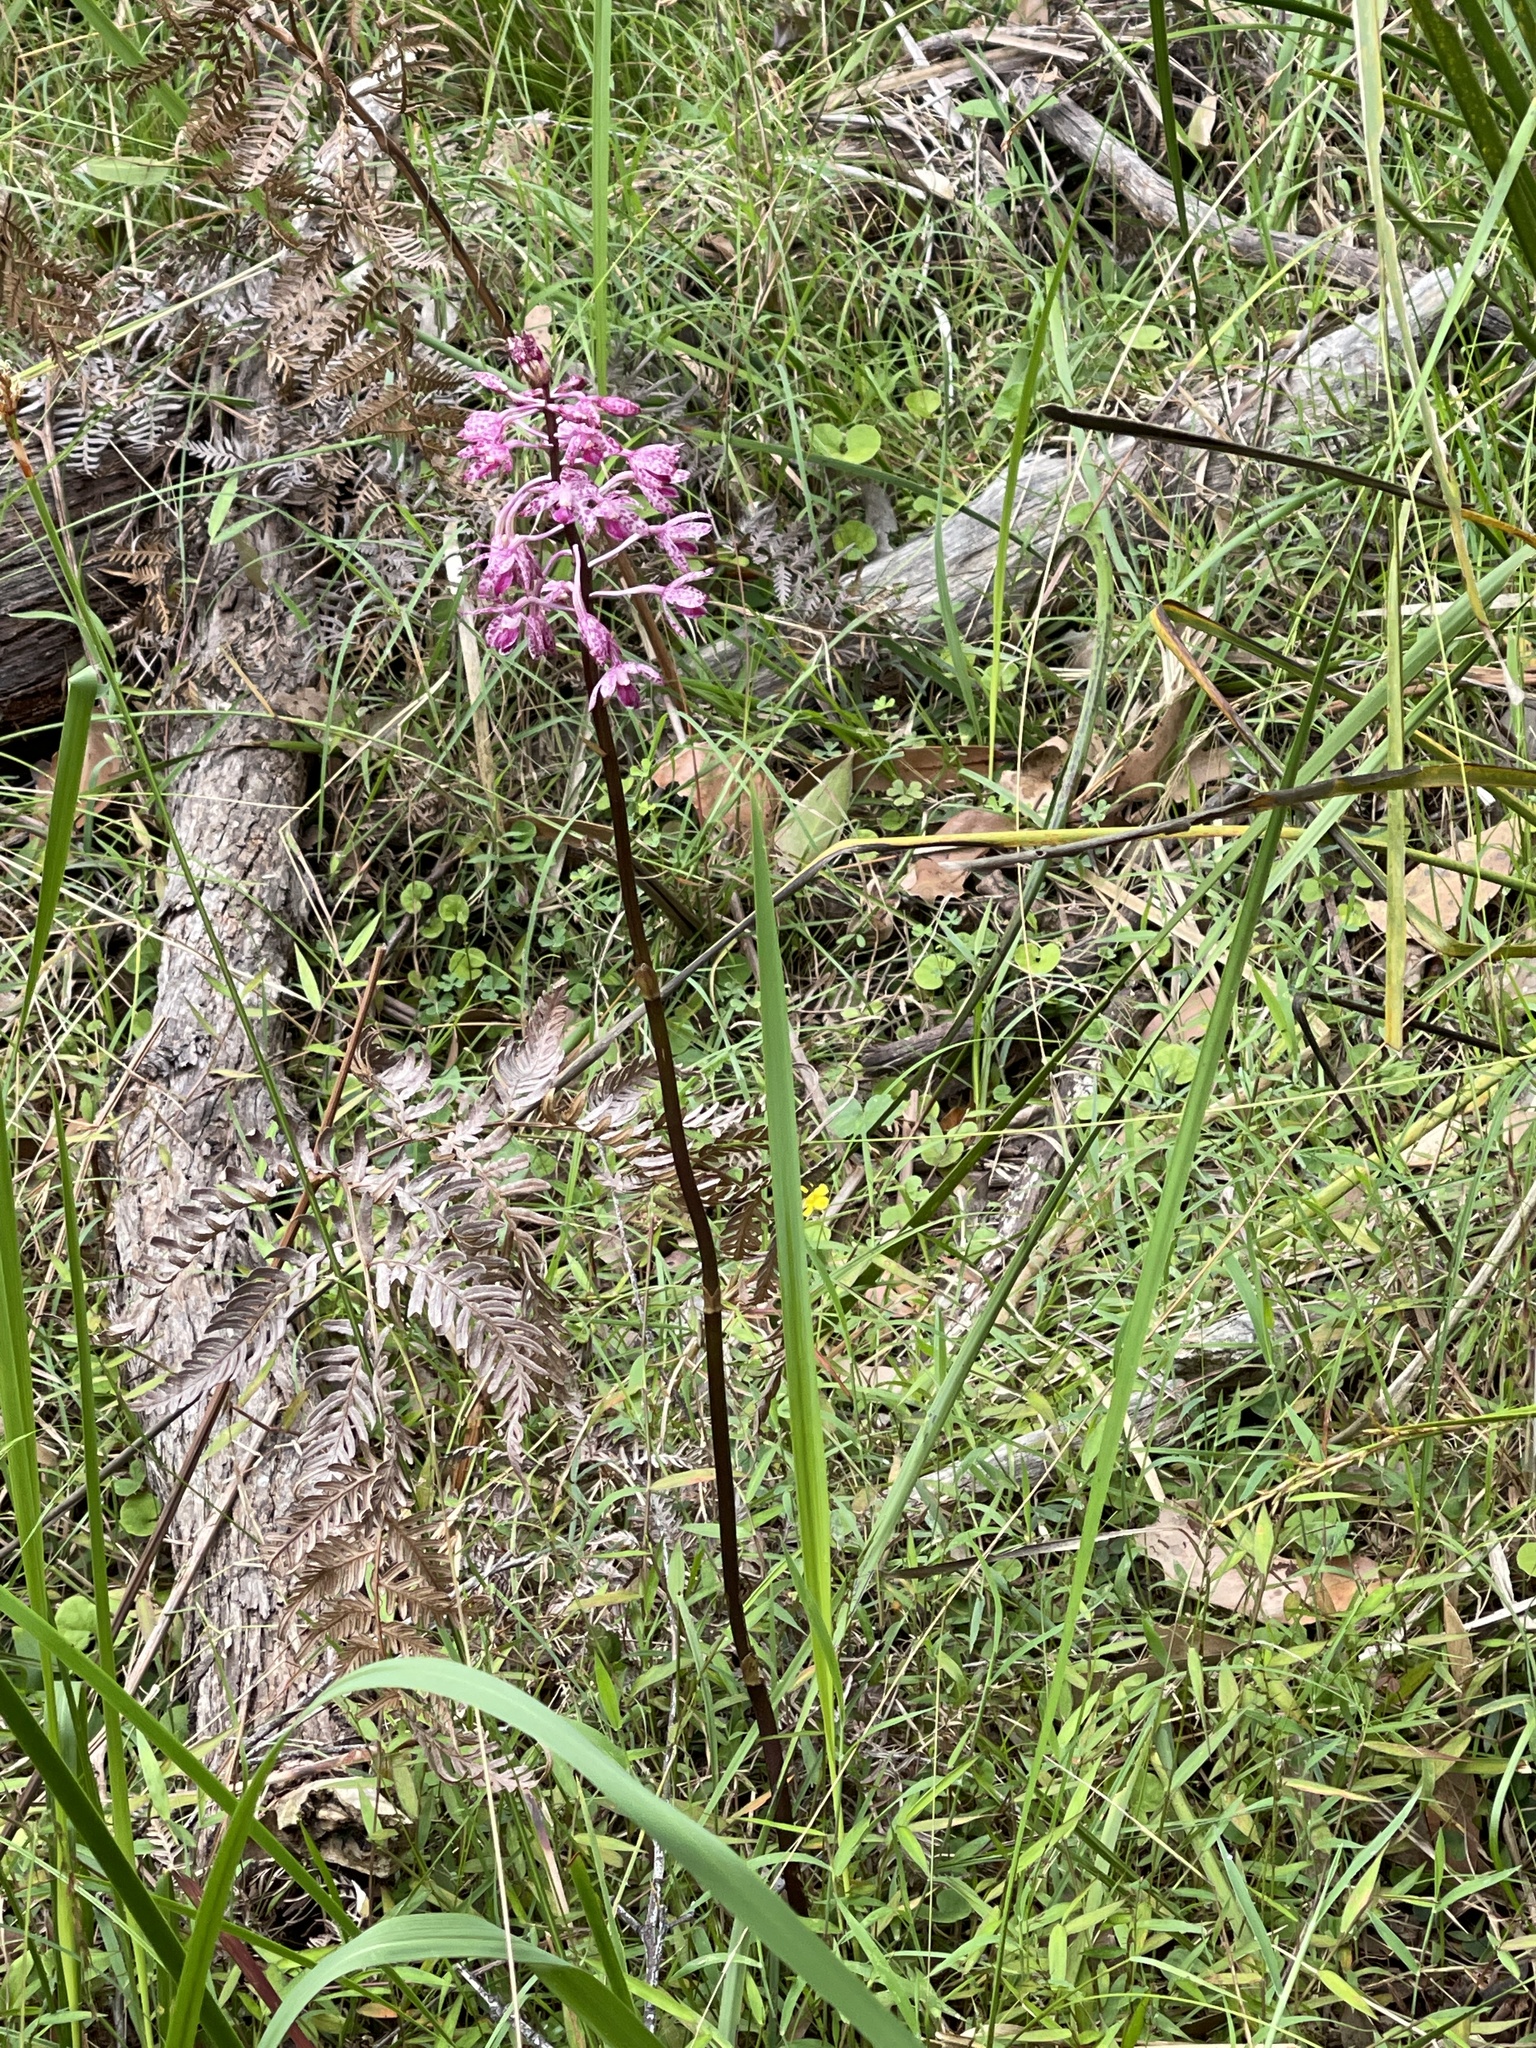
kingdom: Plantae
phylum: Tracheophyta
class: Liliopsida
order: Asparagales
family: Orchidaceae
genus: Dipodium
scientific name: Dipodium squamatum
